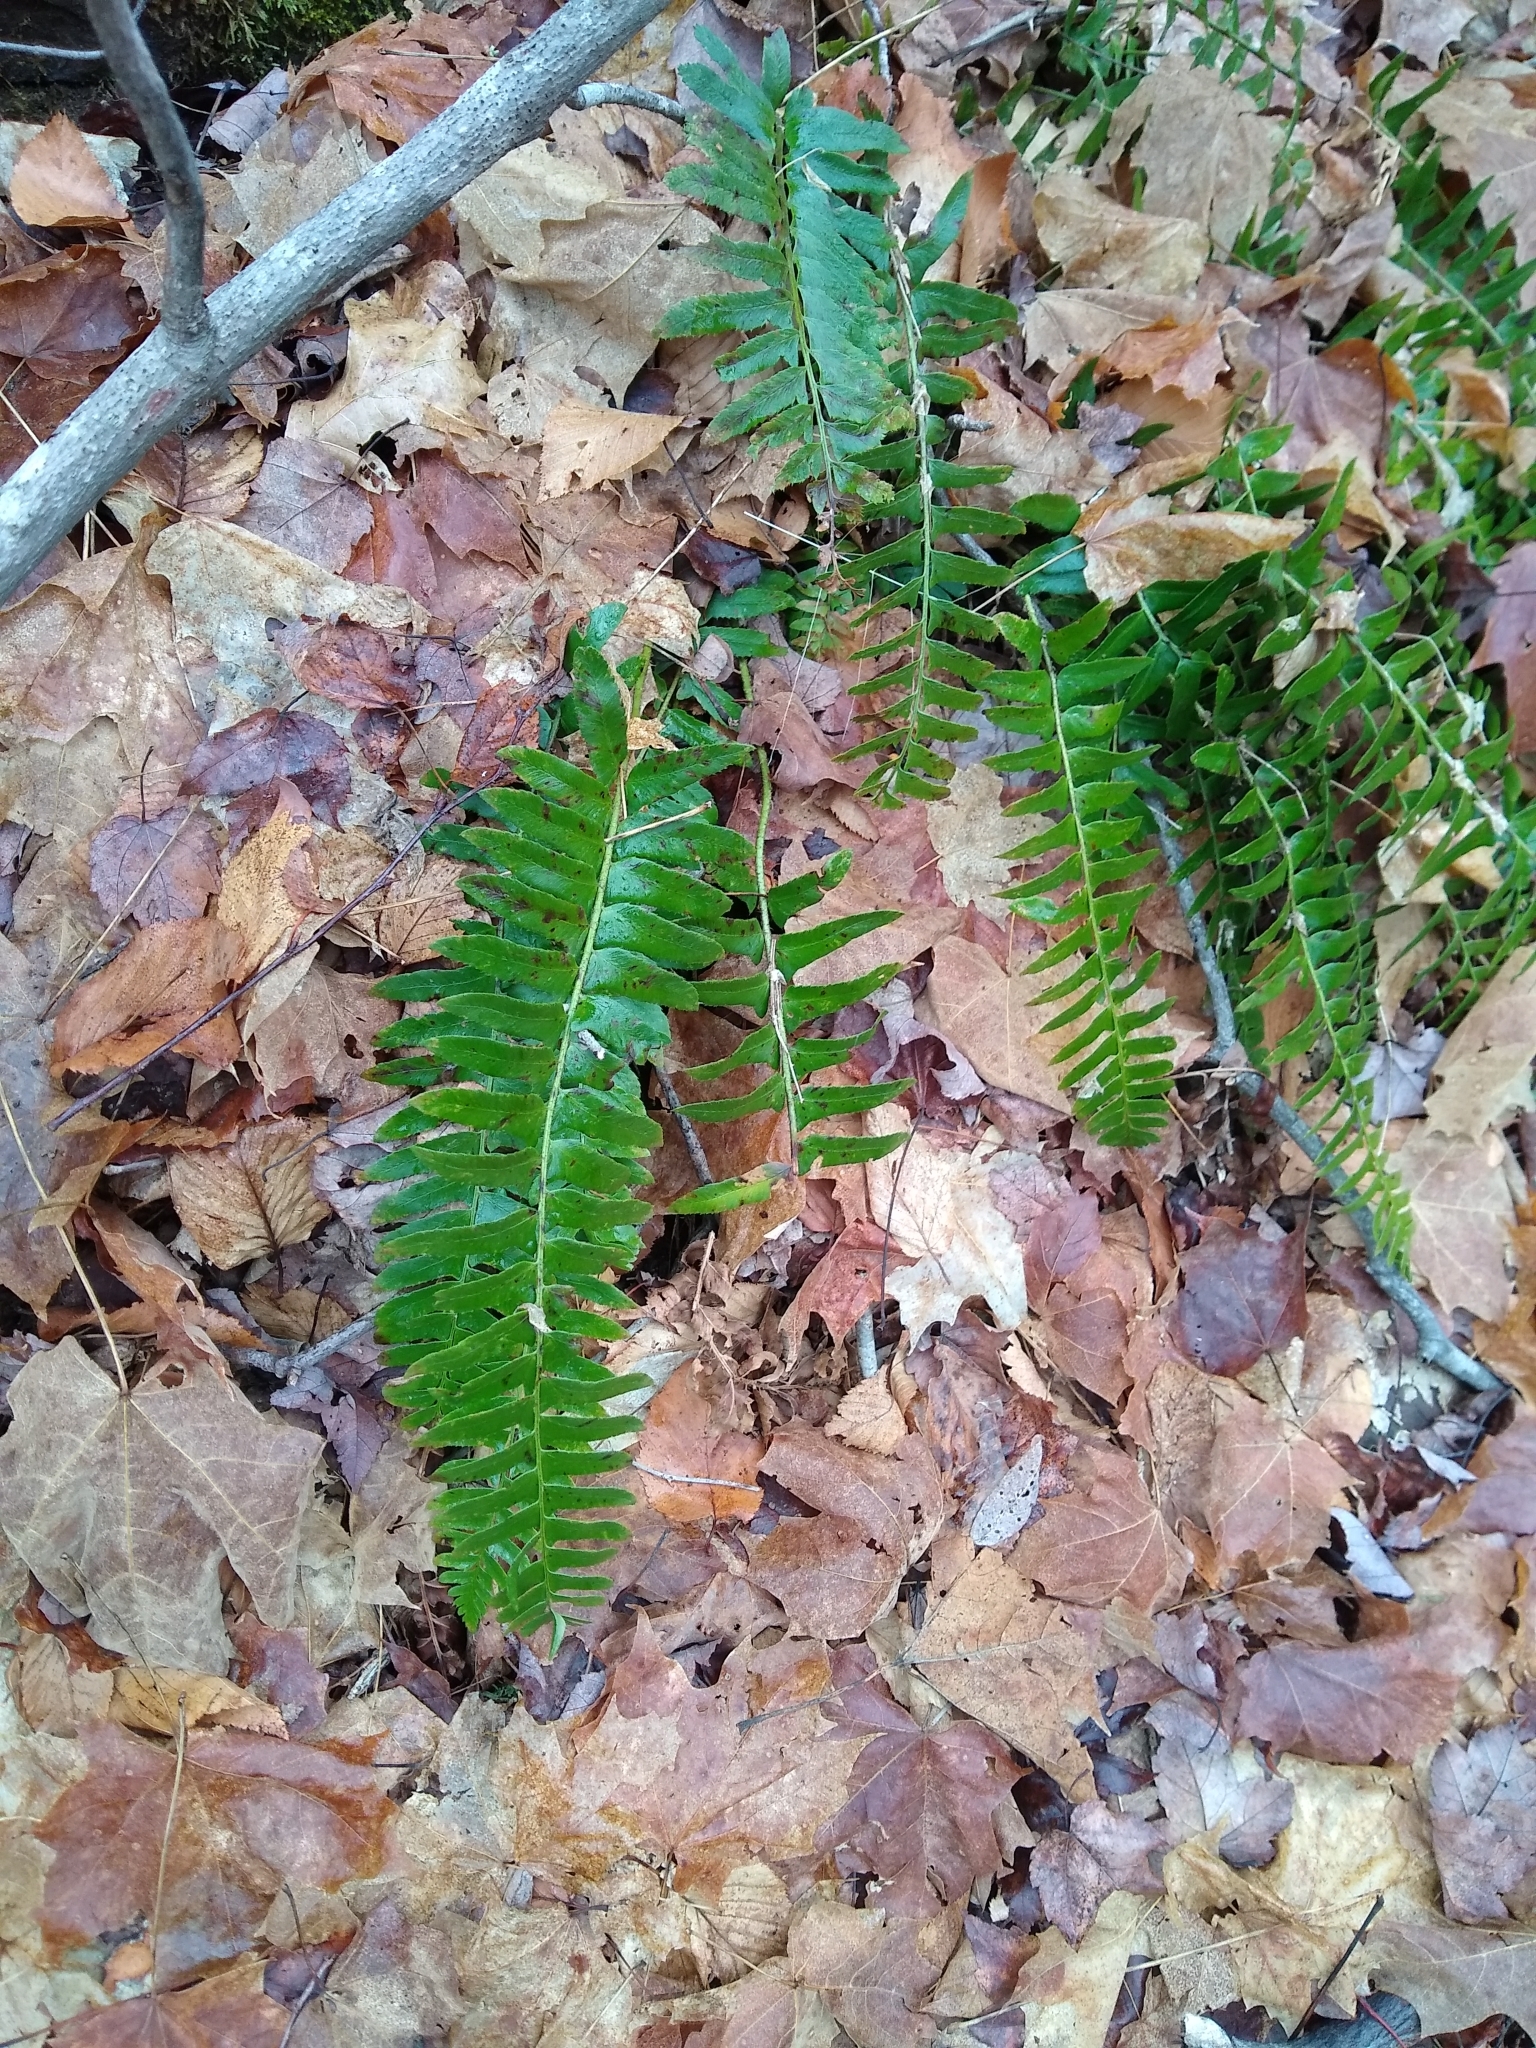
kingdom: Plantae
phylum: Tracheophyta
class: Polypodiopsida
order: Polypodiales
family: Dryopteridaceae
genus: Polystichum
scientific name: Polystichum acrostichoides
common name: Christmas fern
